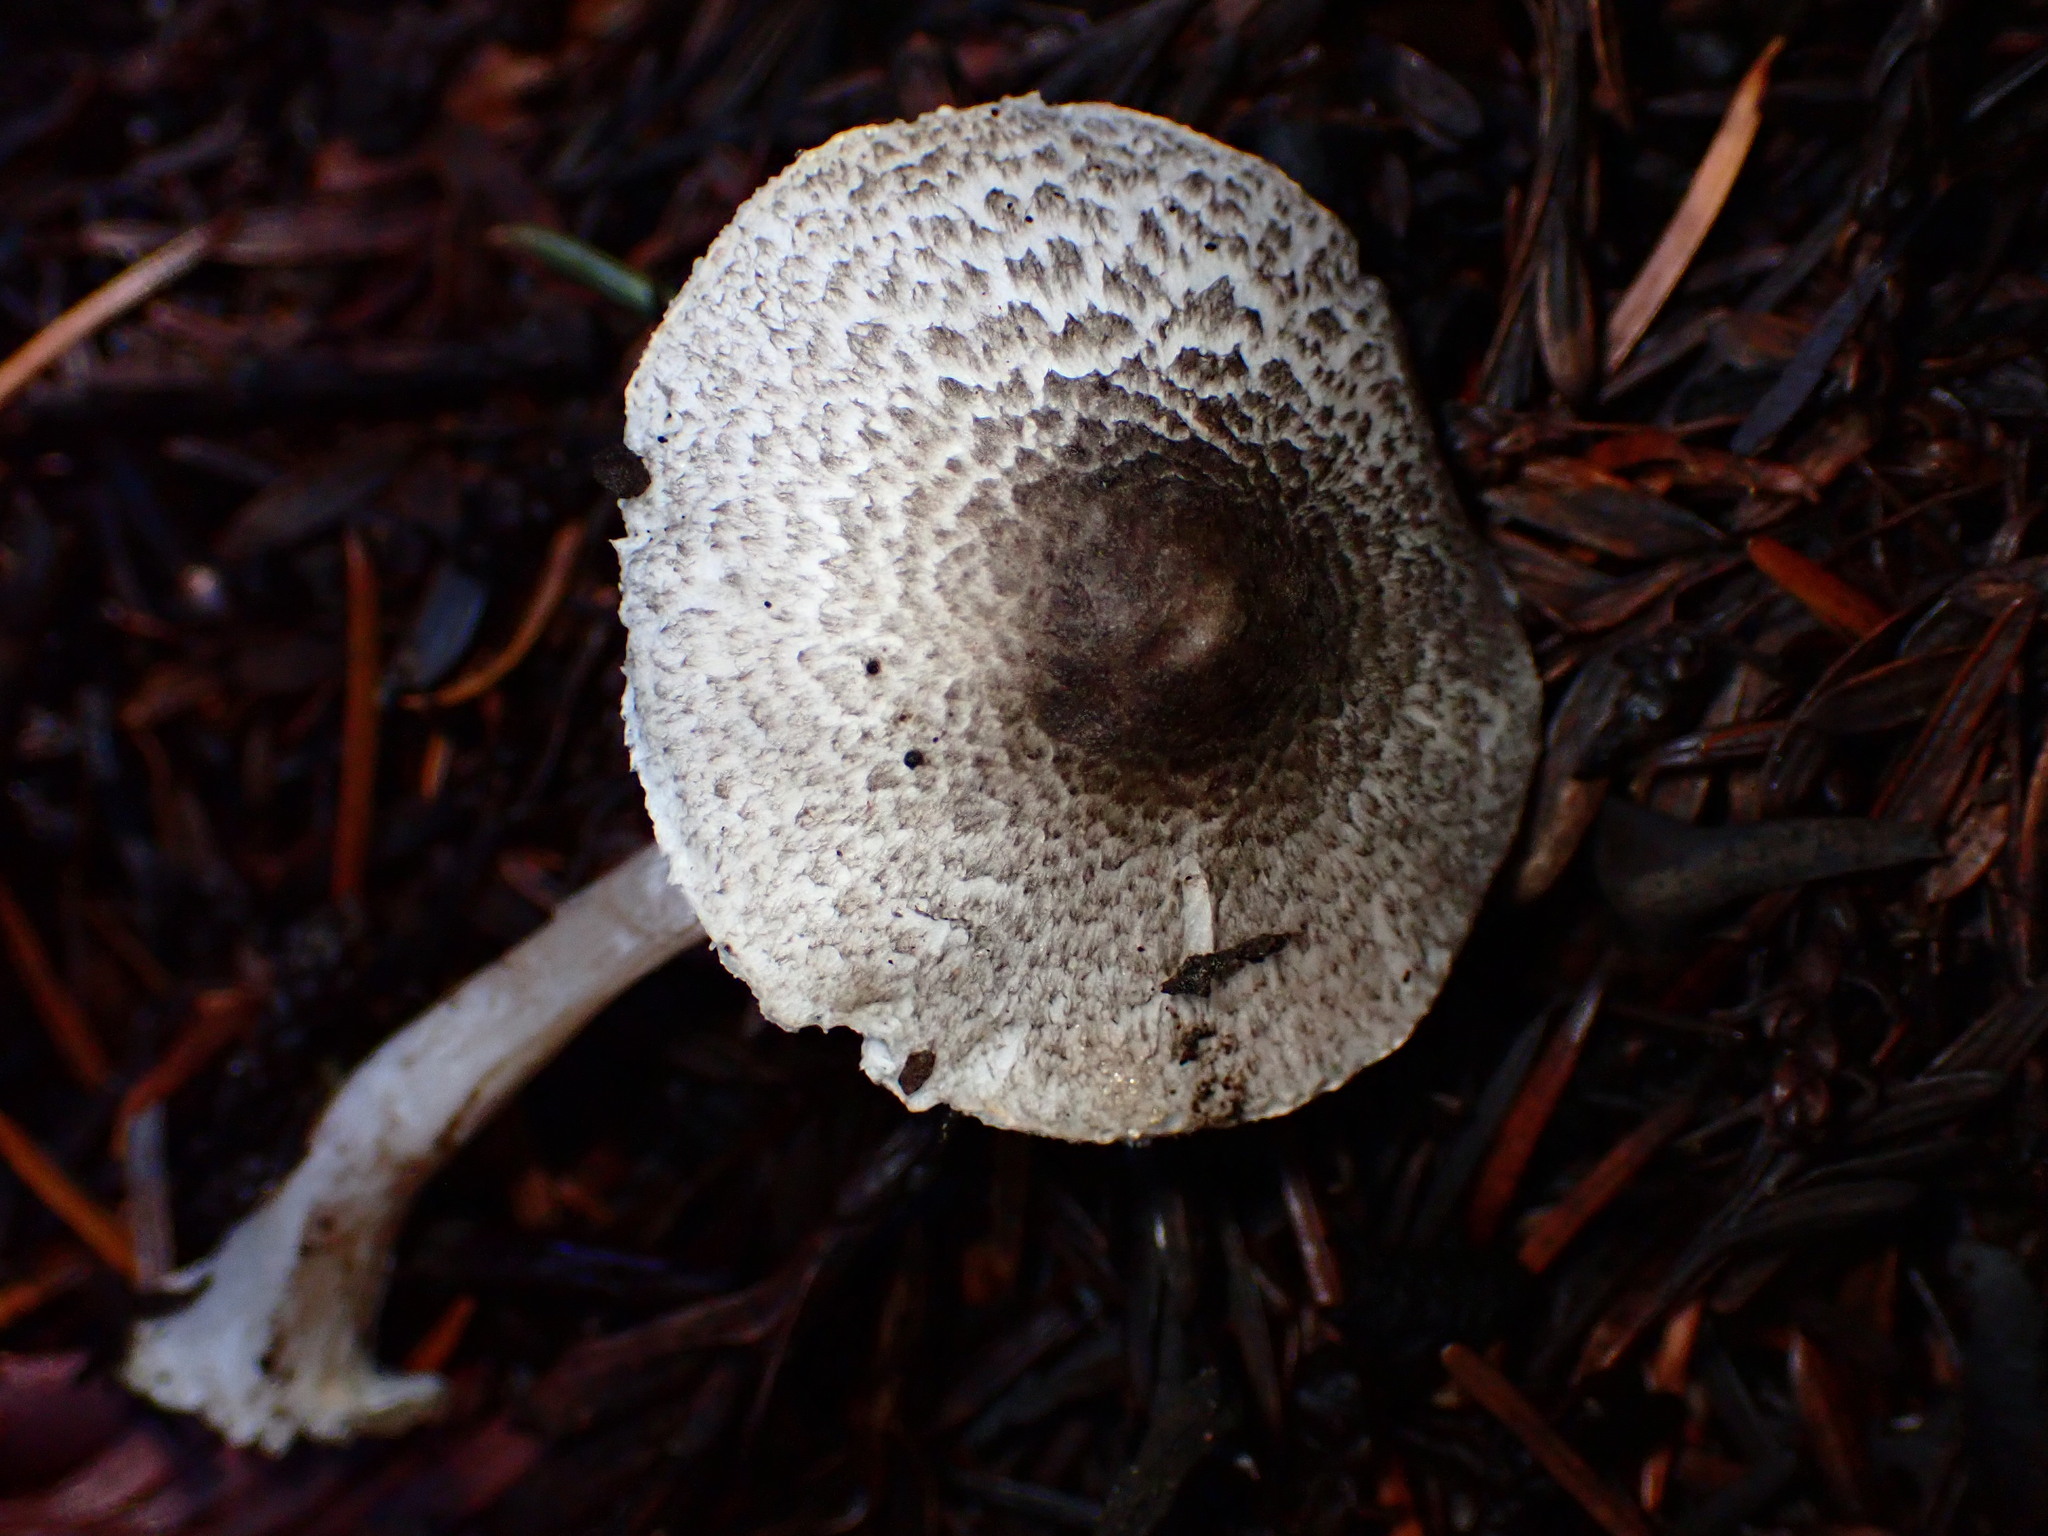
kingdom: Fungi
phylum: Basidiomycota
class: Agaricomycetes
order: Agaricales
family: Agaricaceae
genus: Leucocoprinus
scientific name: Leucocoprinus brebissonii
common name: Skullcap dapperling
